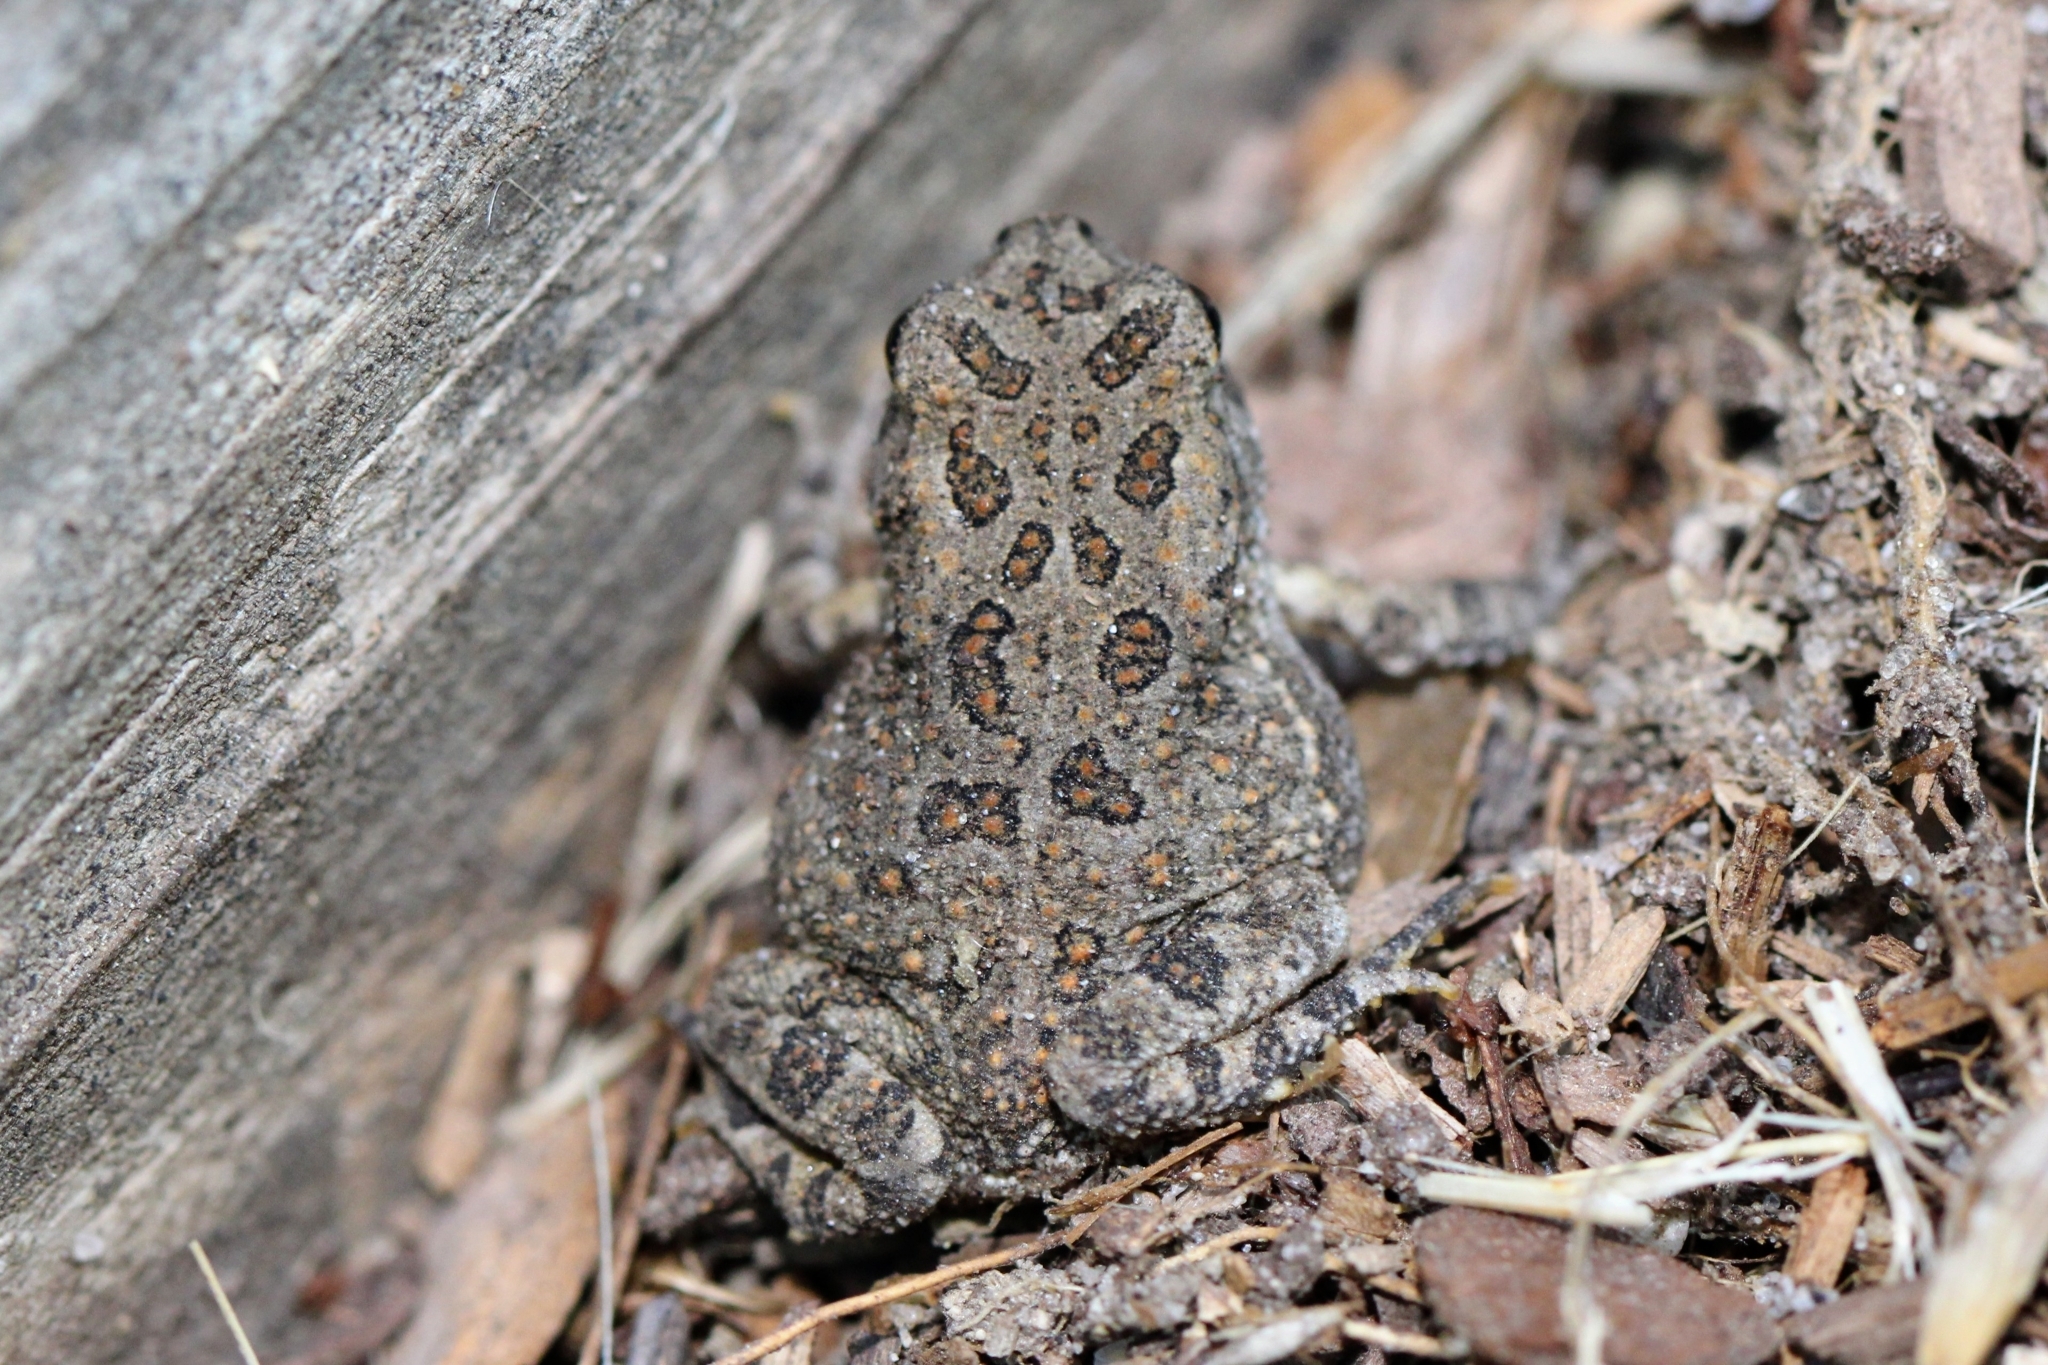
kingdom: Animalia
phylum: Chordata
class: Amphibia
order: Anura
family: Bufonidae
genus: Anaxyrus
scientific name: Anaxyrus fowleri
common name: Fowler's toad
